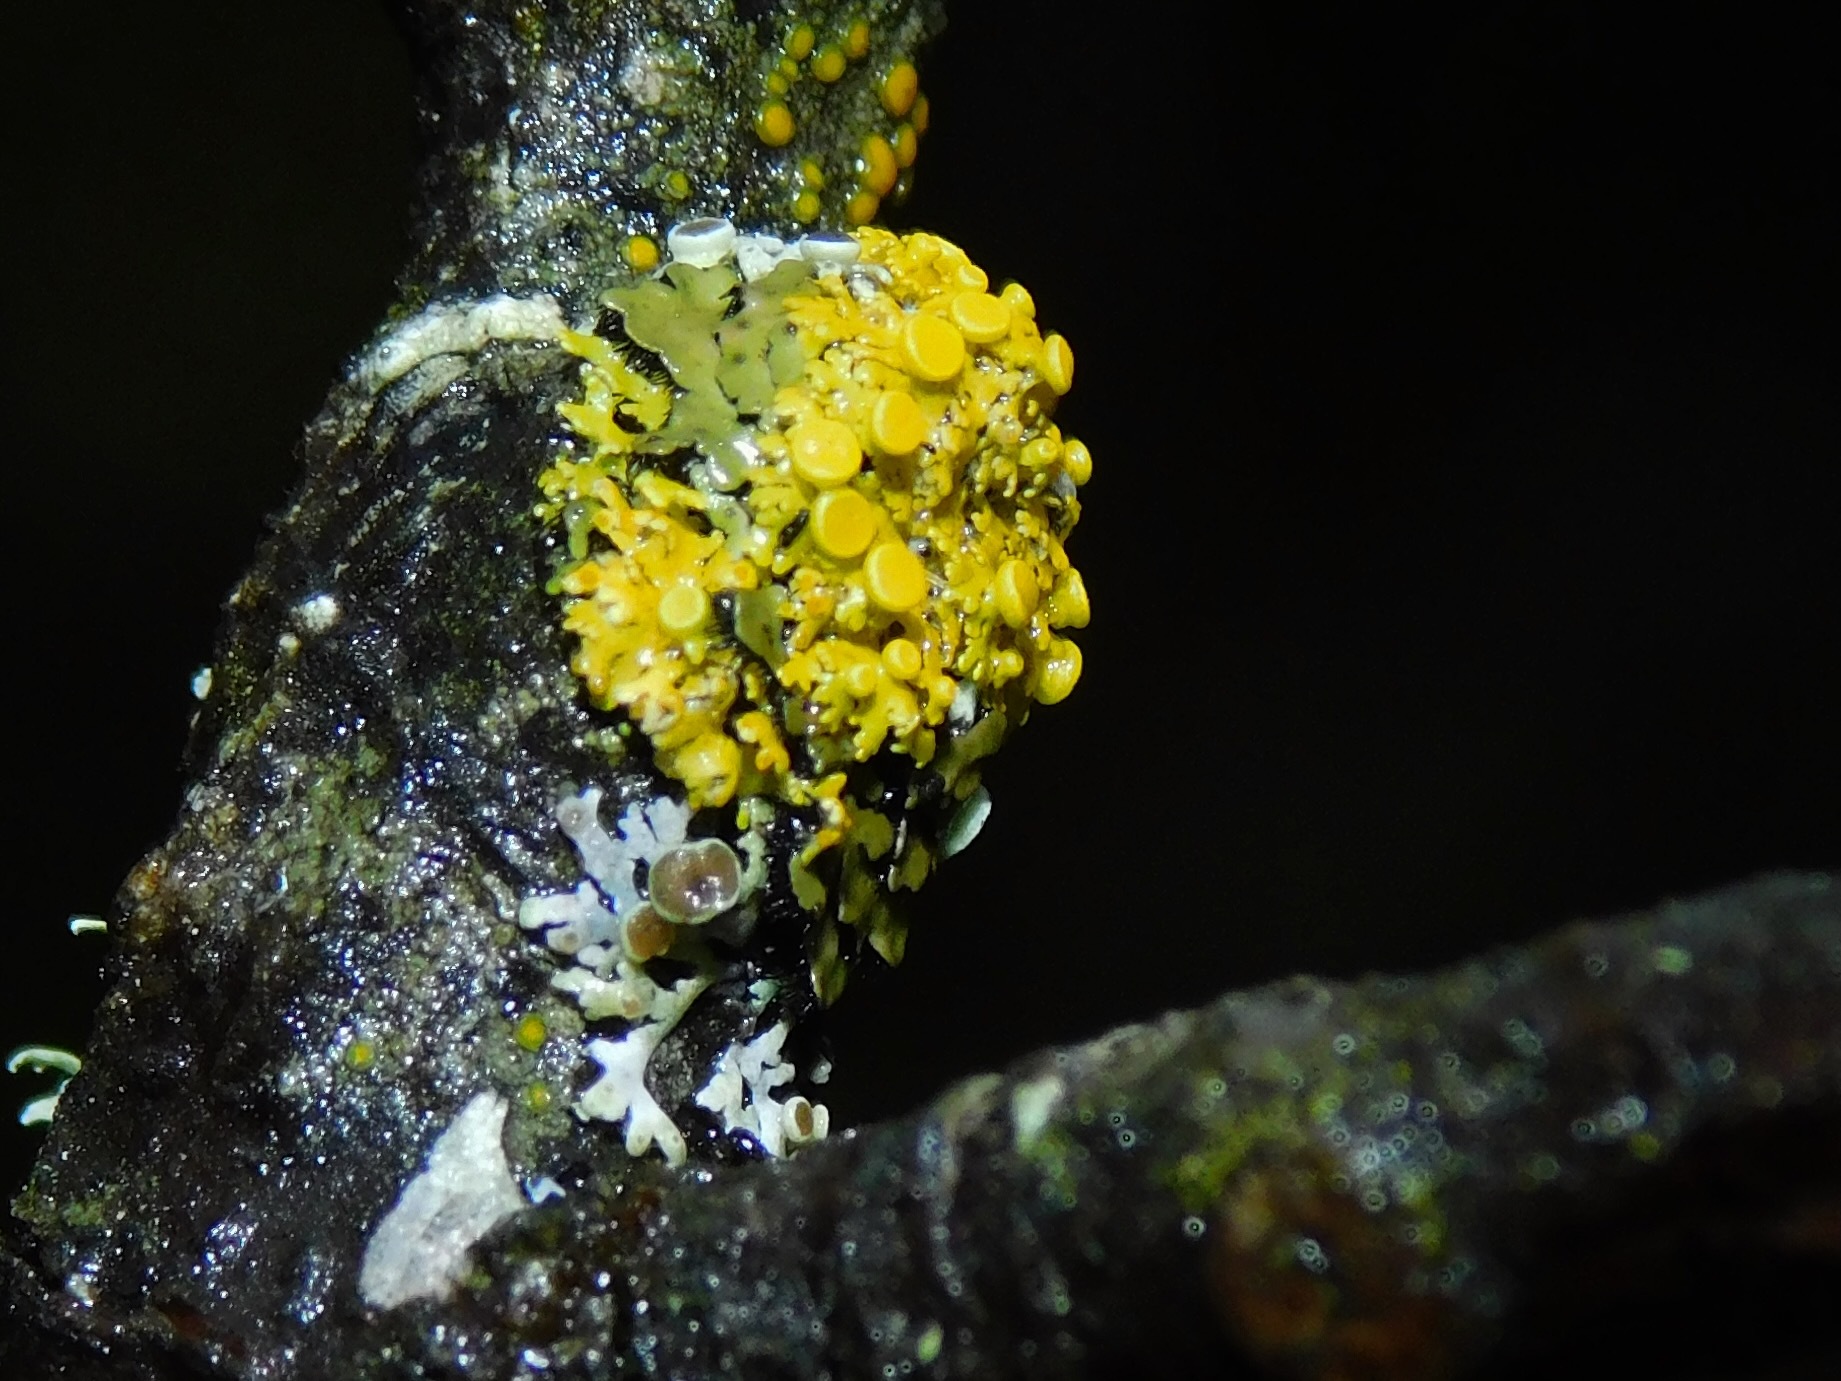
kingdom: Fungi
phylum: Ascomycota
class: Lecanoromycetes
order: Teloschistales
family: Teloschistaceae
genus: Gallowayella
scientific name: Gallowayella hasseana
